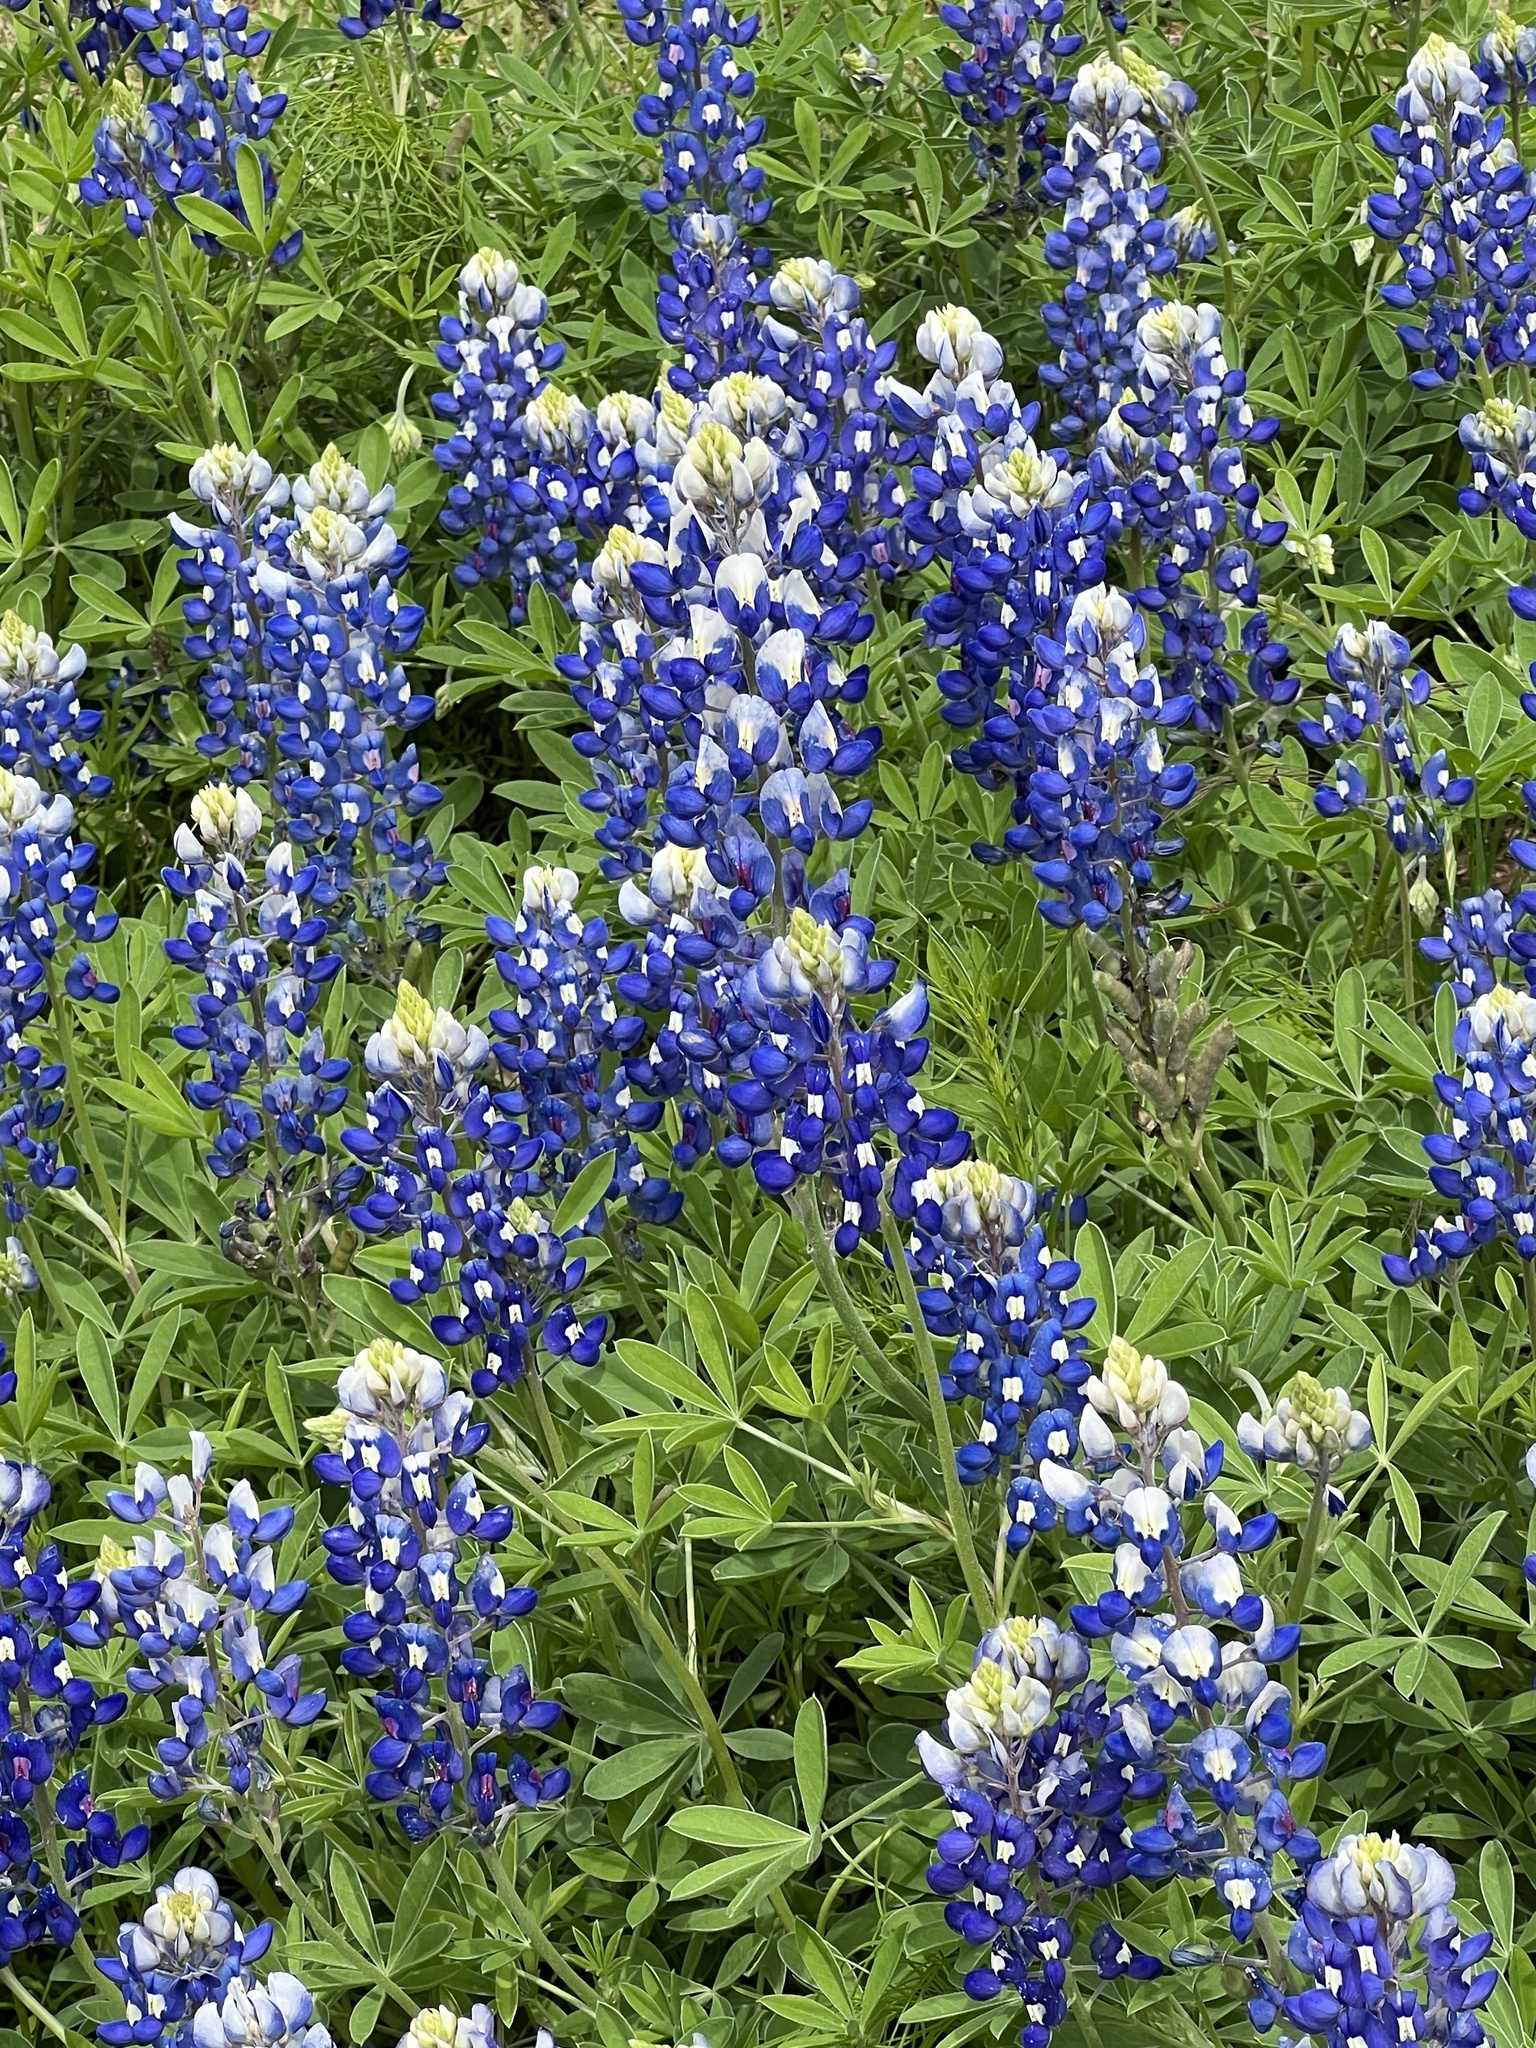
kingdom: Plantae
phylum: Tracheophyta
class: Magnoliopsida
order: Fabales
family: Fabaceae
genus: Lupinus
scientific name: Lupinus texensis
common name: Texas bluebonnet
